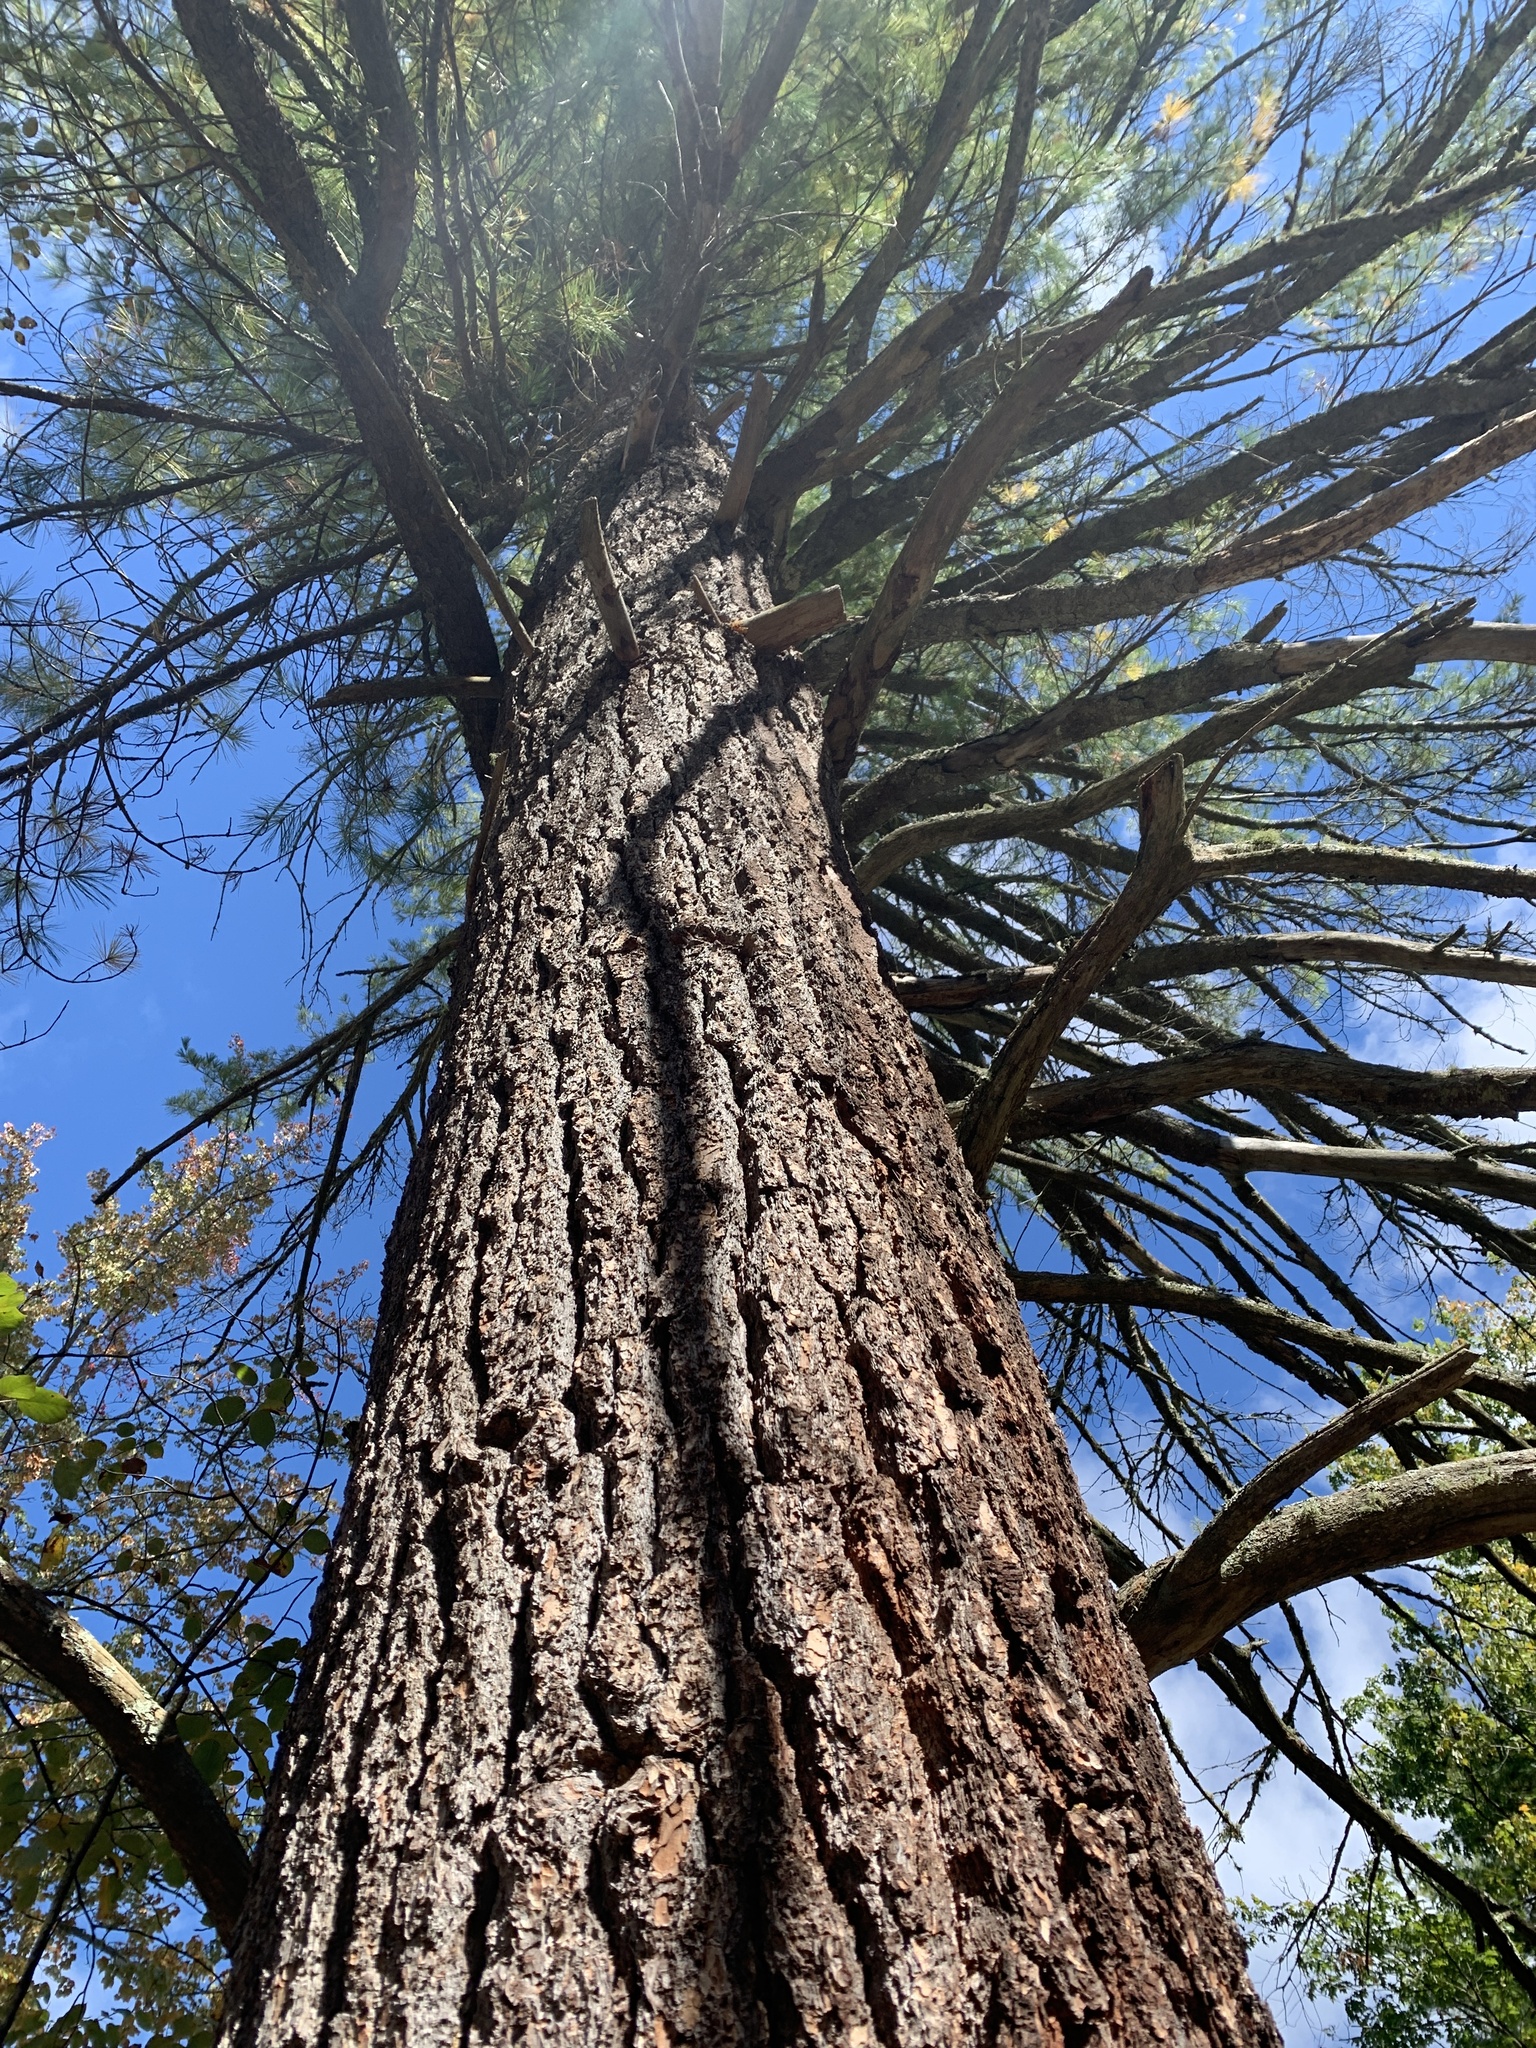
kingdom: Plantae
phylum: Tracheophyta
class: Pinopsida
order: Pinales
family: Pinaceae
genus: Pinus
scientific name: Pinus strobus
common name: Weymouth pine
